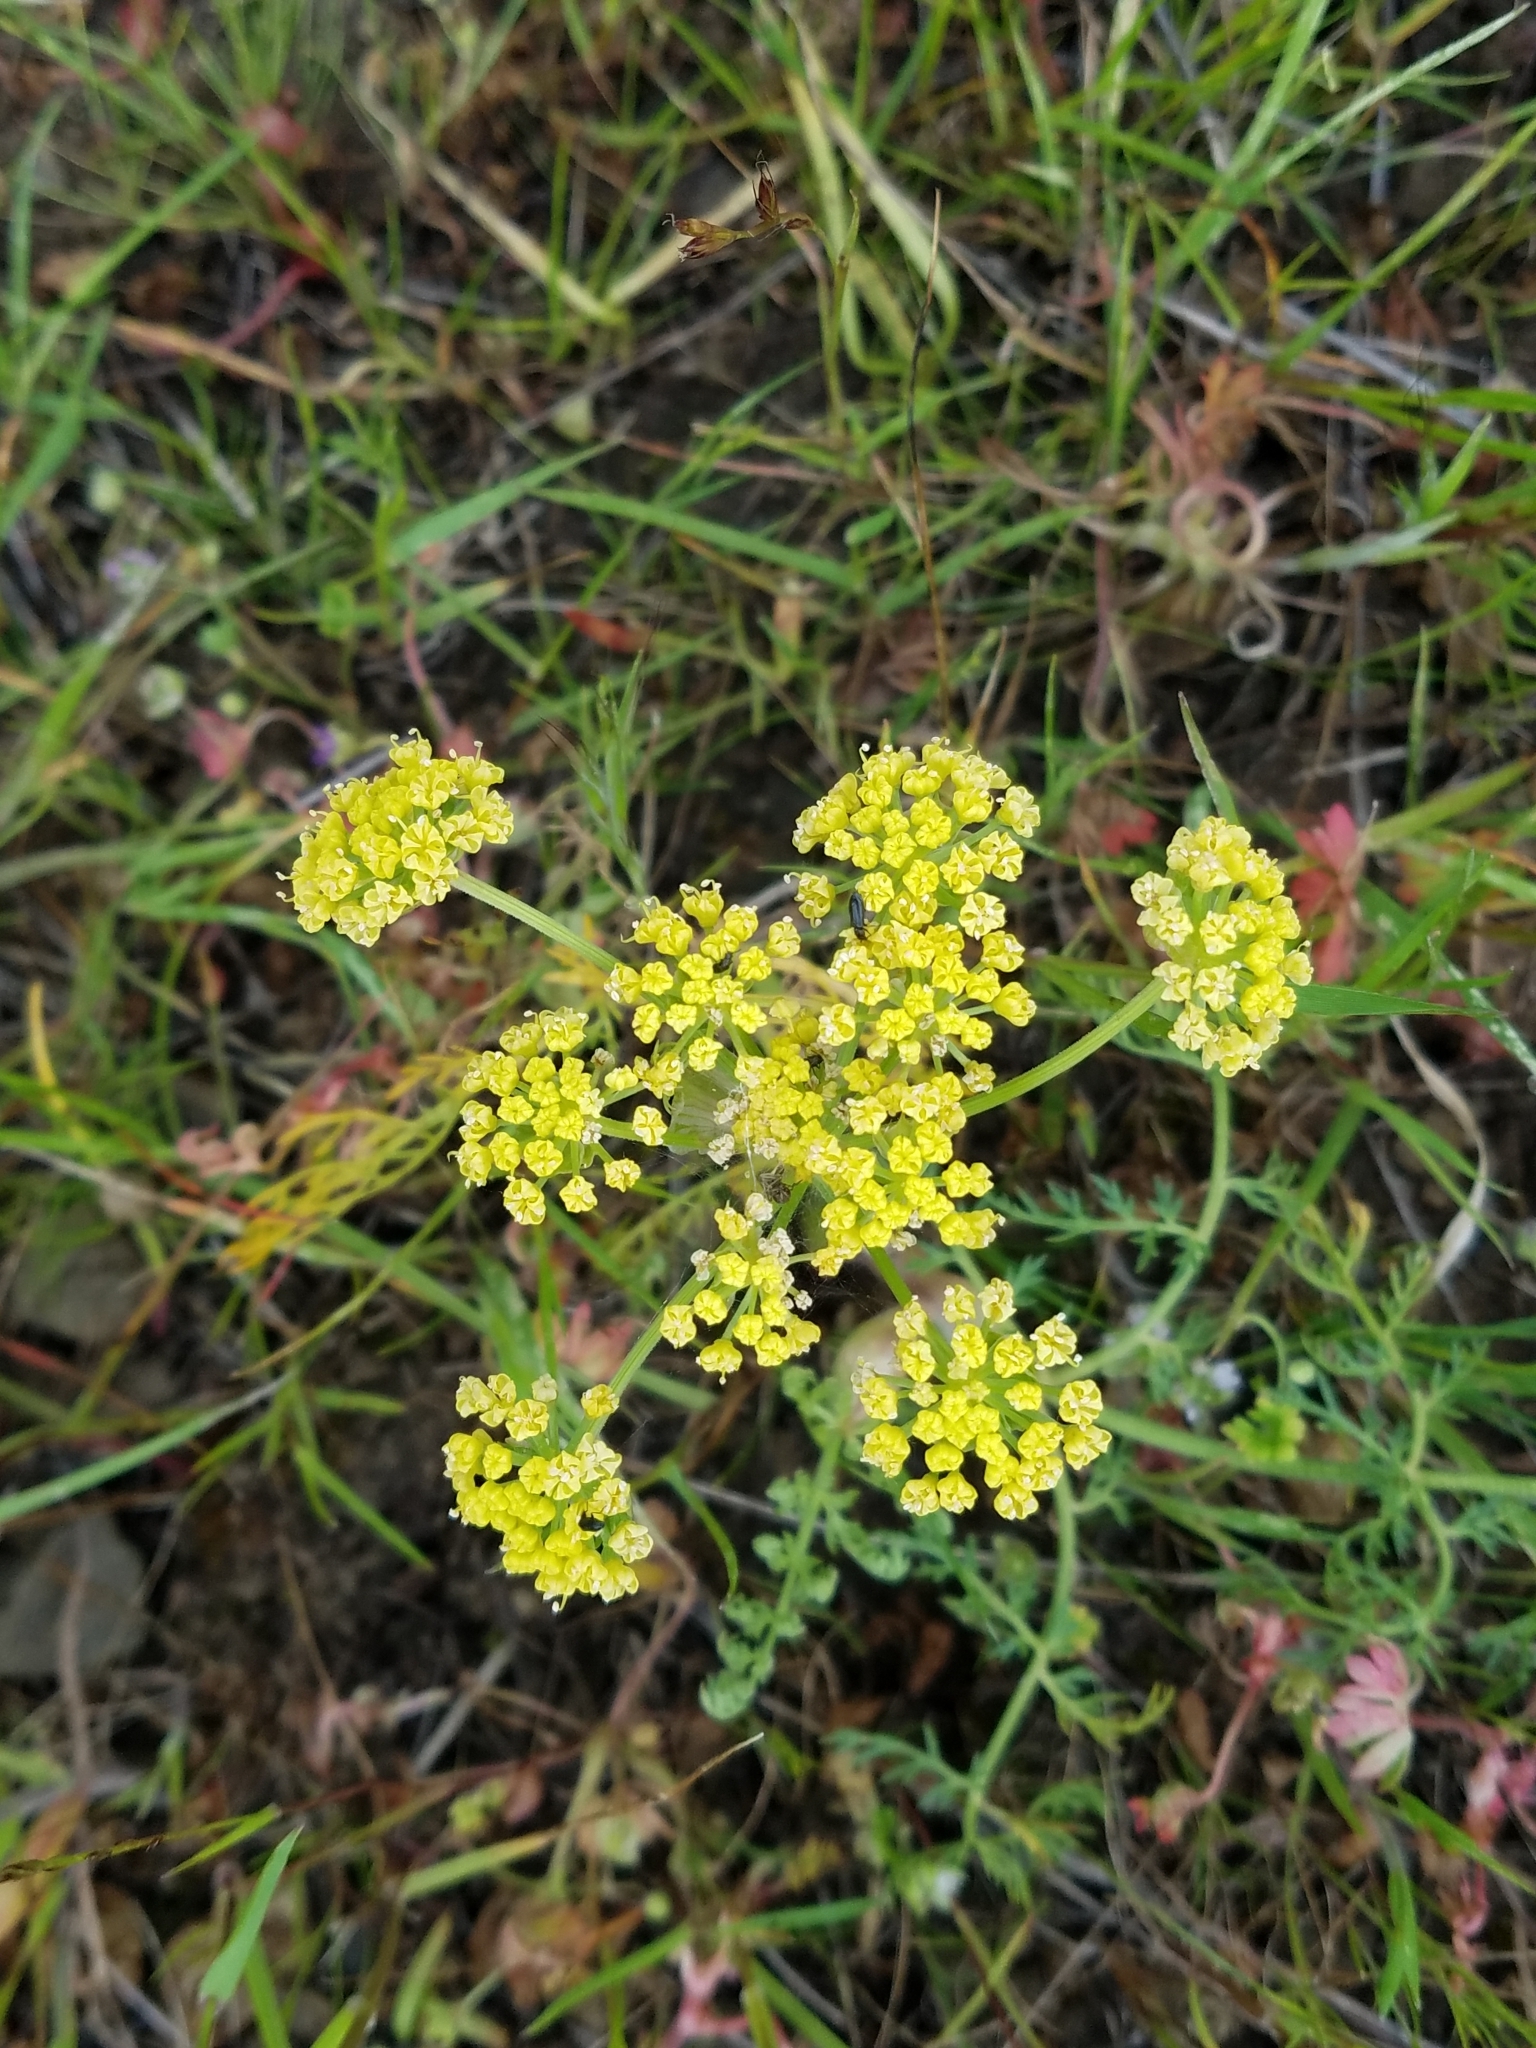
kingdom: Plantae
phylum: Tracheophyta
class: Magnoliopsida
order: Apiales
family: Apiaceae
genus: Lomatium
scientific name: Lomatium utriculatum
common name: Fine-leaf desert-parsley
